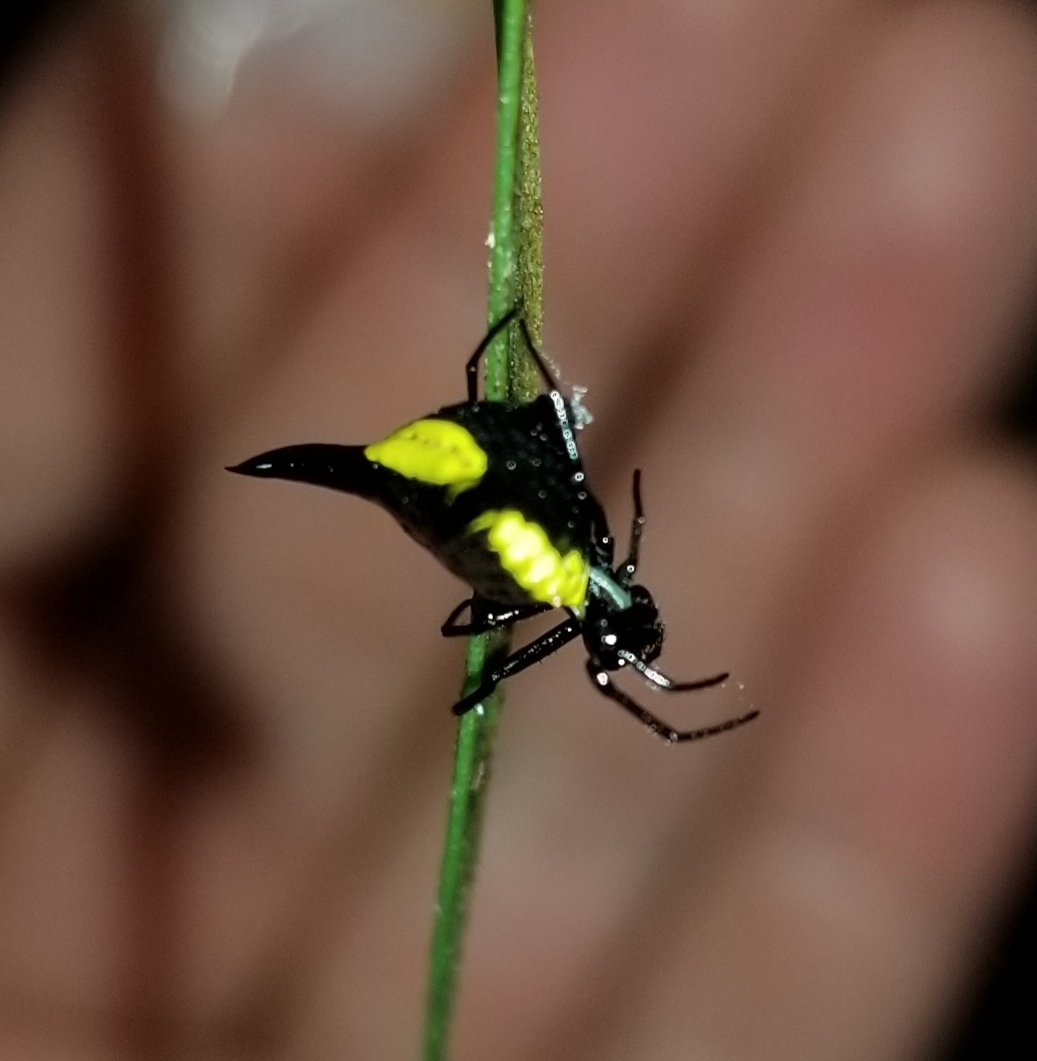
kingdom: Animalia
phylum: Arthropoda
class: Arachnida
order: Araneae
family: Araneidae
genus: Micrathena
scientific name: Micrathena pungens
